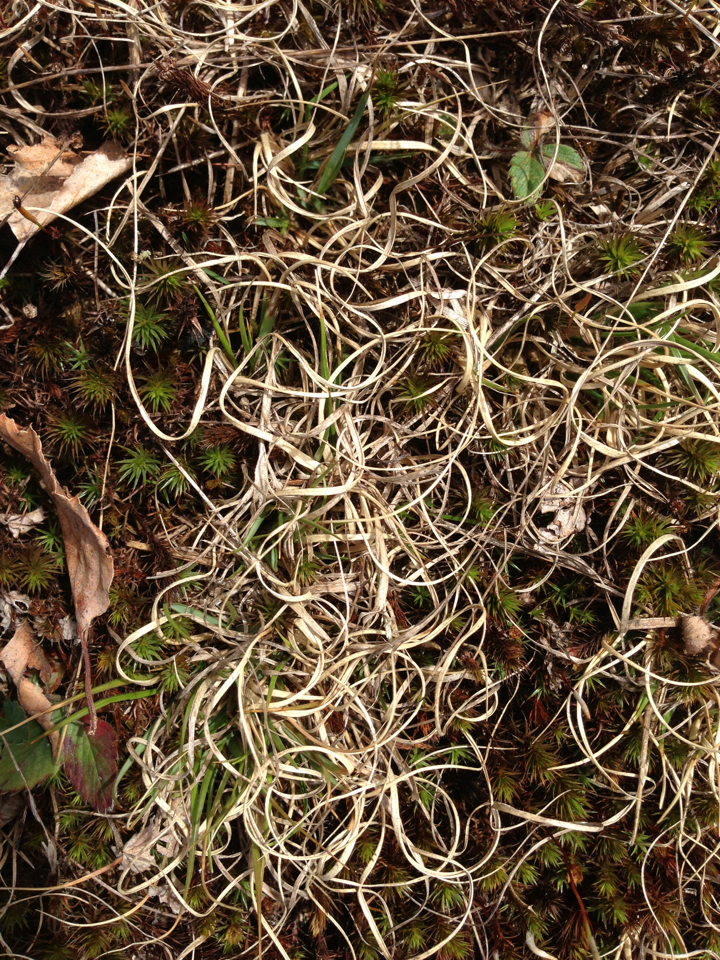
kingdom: Plantae
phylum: Tracheophyta
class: Liliopsida
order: Poales
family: Poaceae
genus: Danthonia
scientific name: Danthonia spicata
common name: Common wild oatgrass
